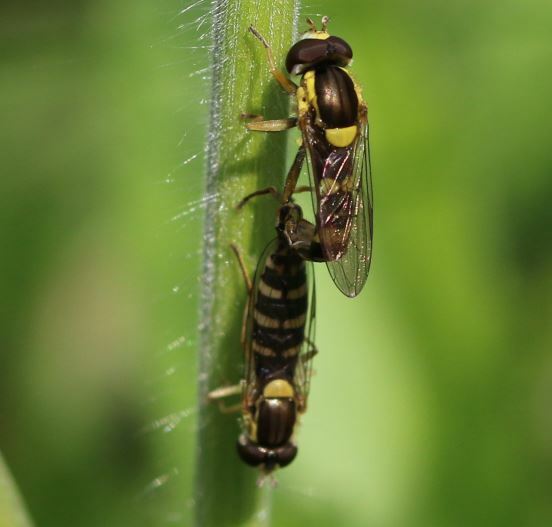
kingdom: Animalia
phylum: Arthropoda
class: Insecta
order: Diptera
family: Syrphidae
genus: Sphaerophoria
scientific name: Sphaerophoria scripta
